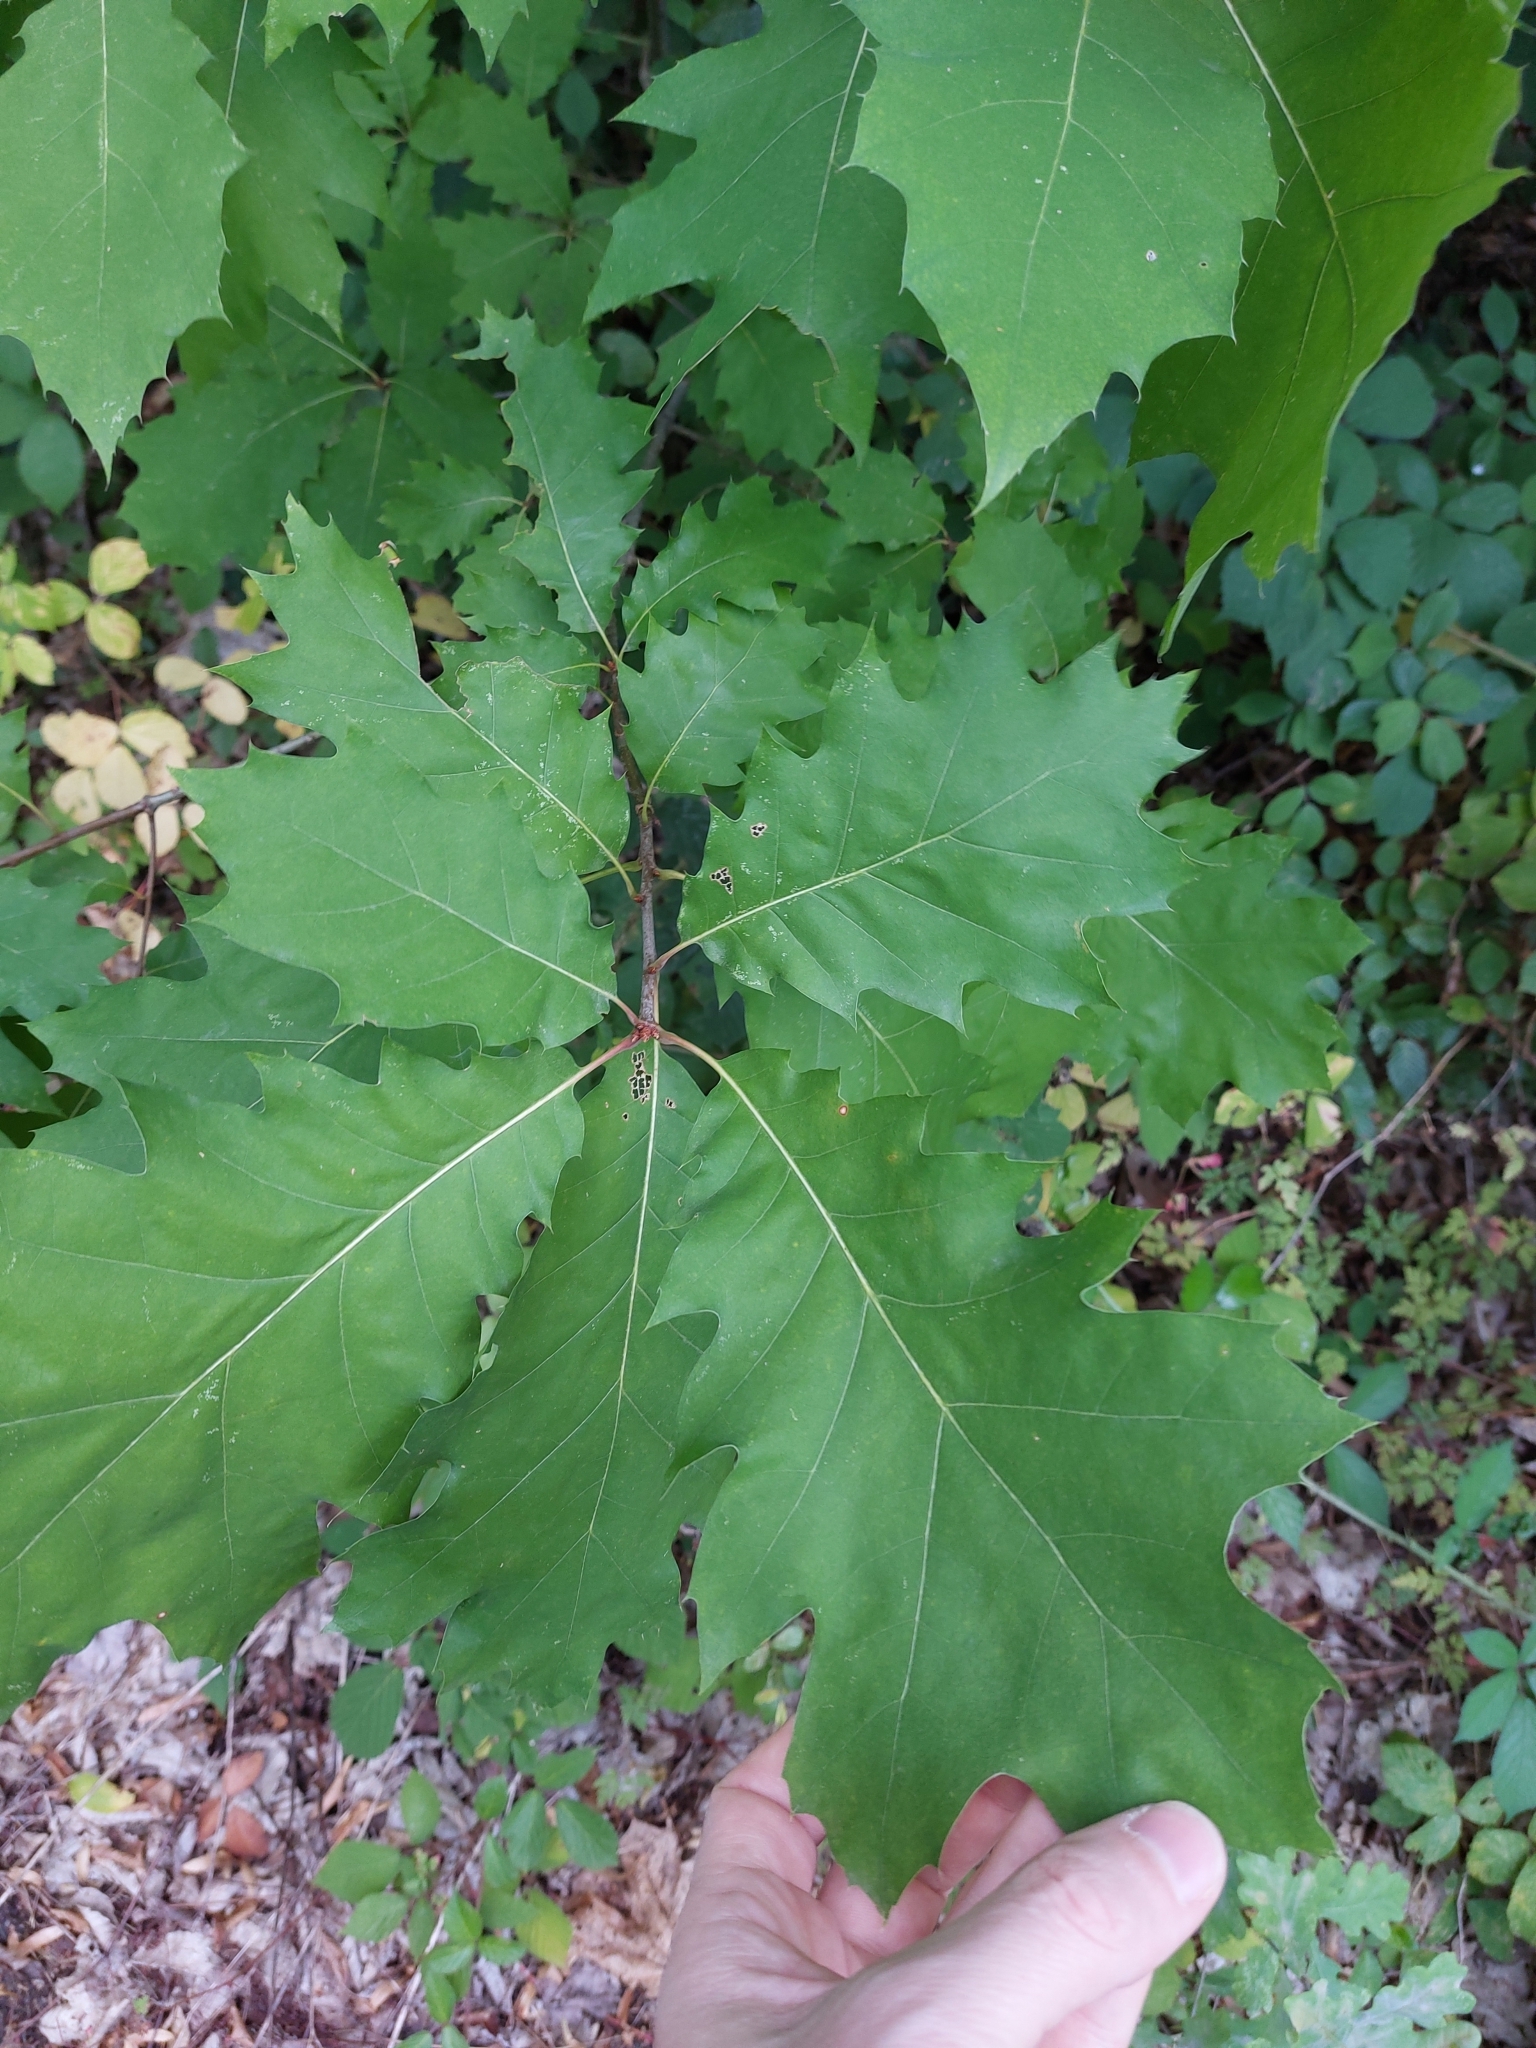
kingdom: Plantae
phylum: Tracheophyta
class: Magnoliopsida
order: Fagales
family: Fagaceae
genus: Quercus
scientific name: Quercus rubra
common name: Red oak
